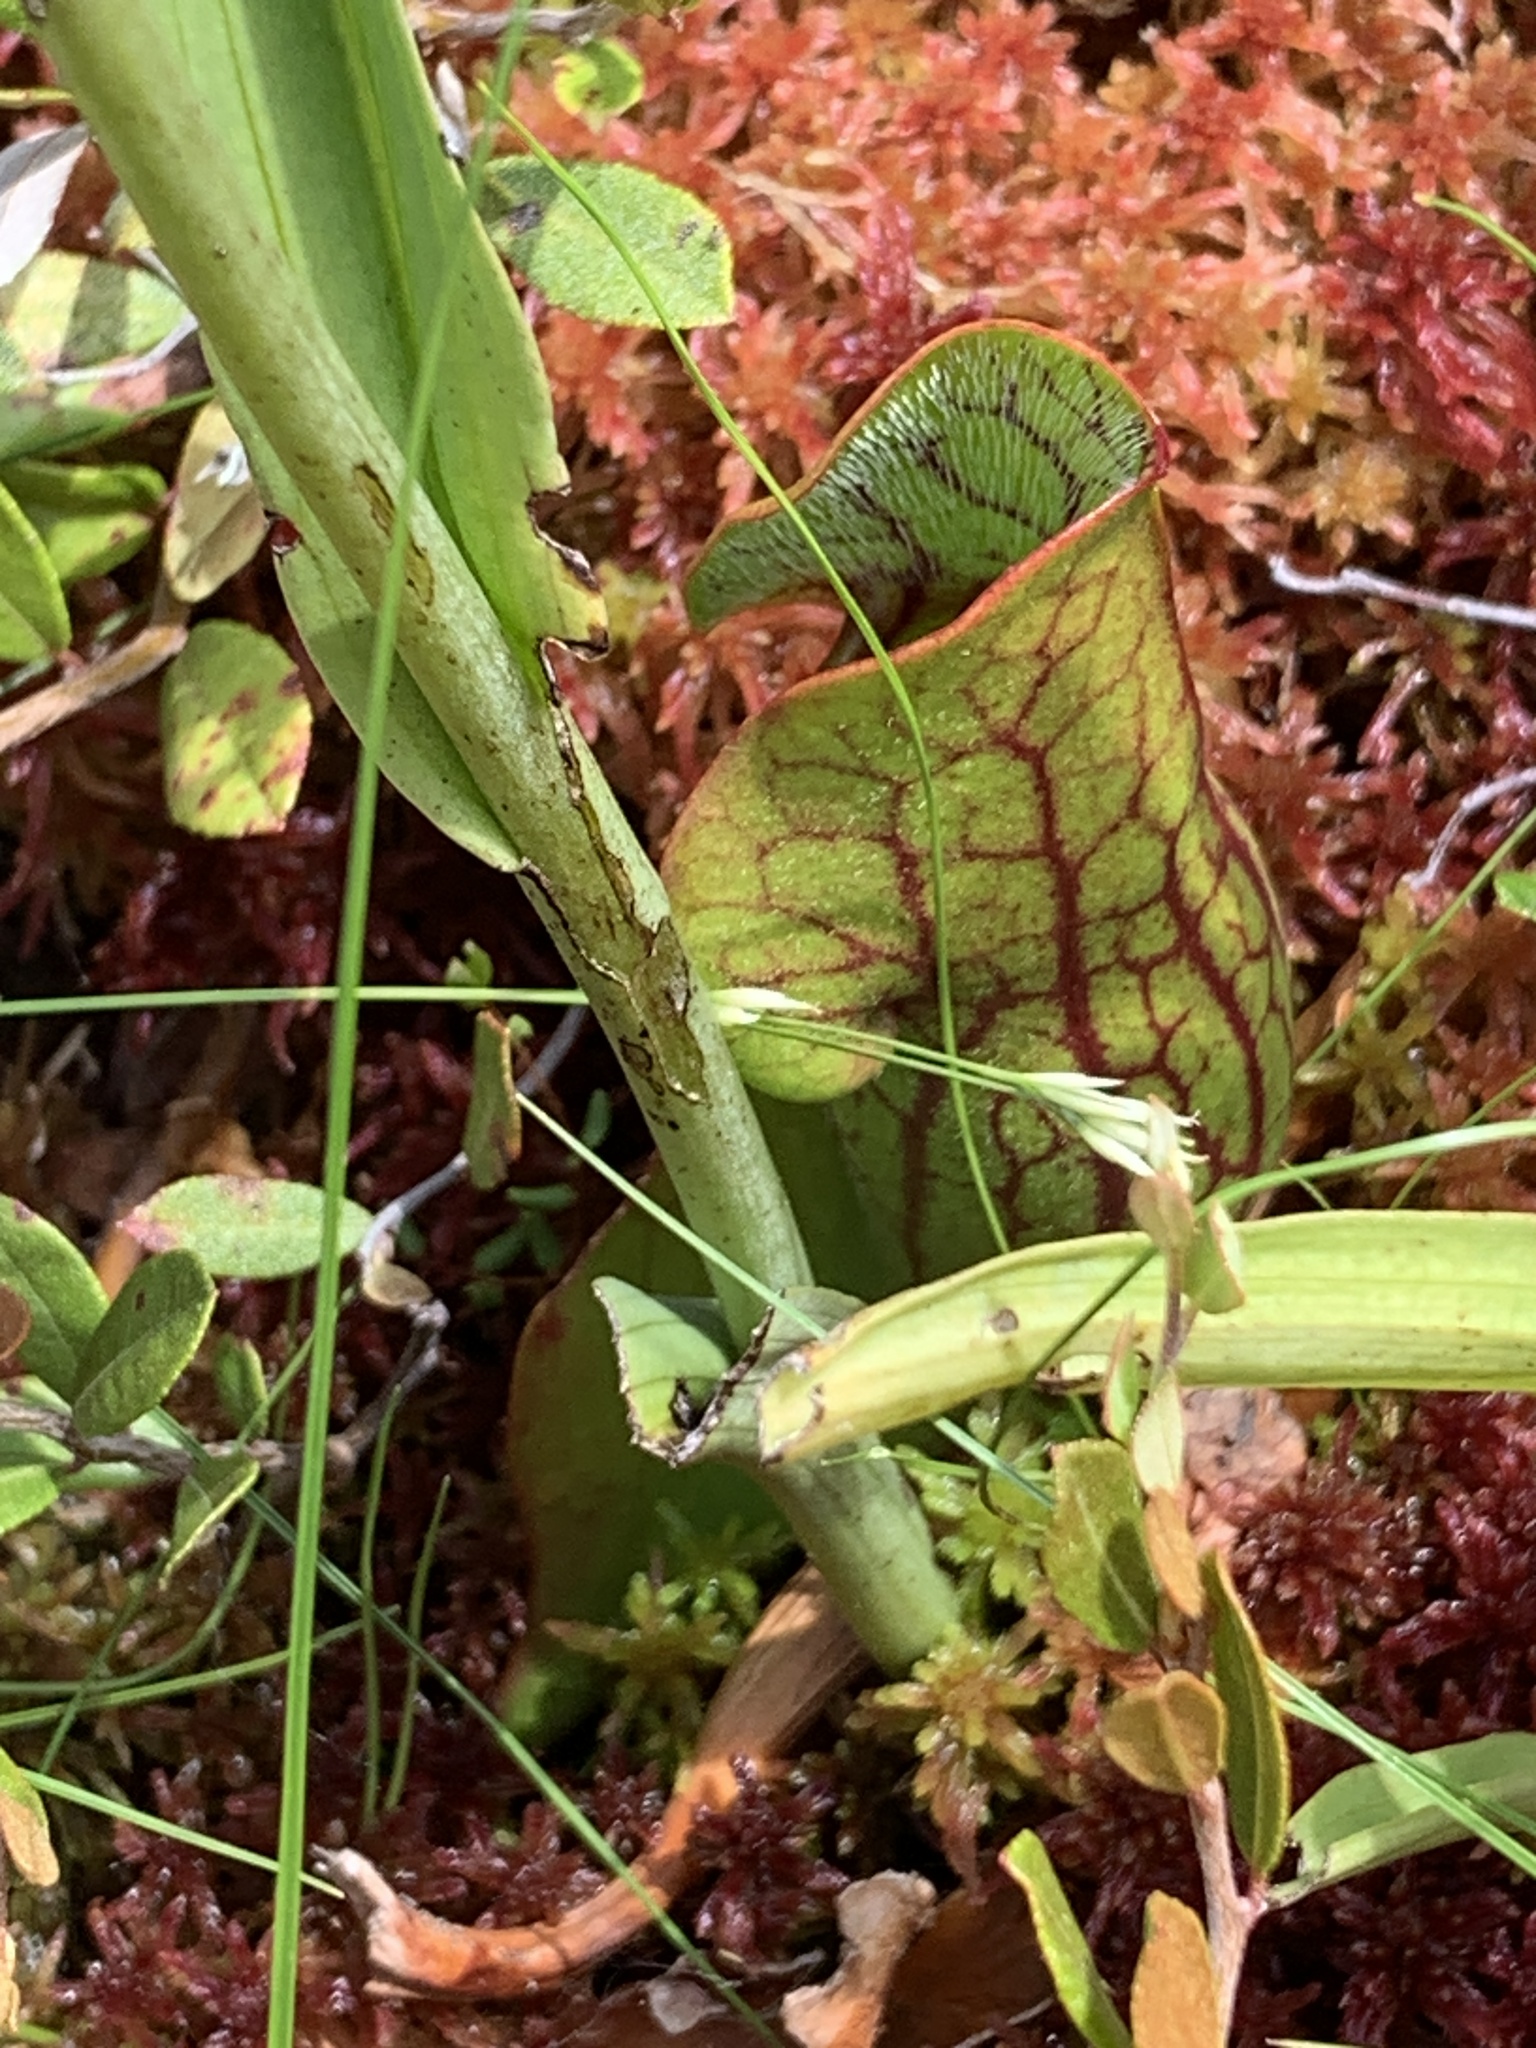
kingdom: Plantae
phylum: Tracheophyta
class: Magnoliopsida
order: Ericales
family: Sarraceniaceae
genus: Sarracenia
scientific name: Sarracenia purpurea
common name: Pitcherplant
